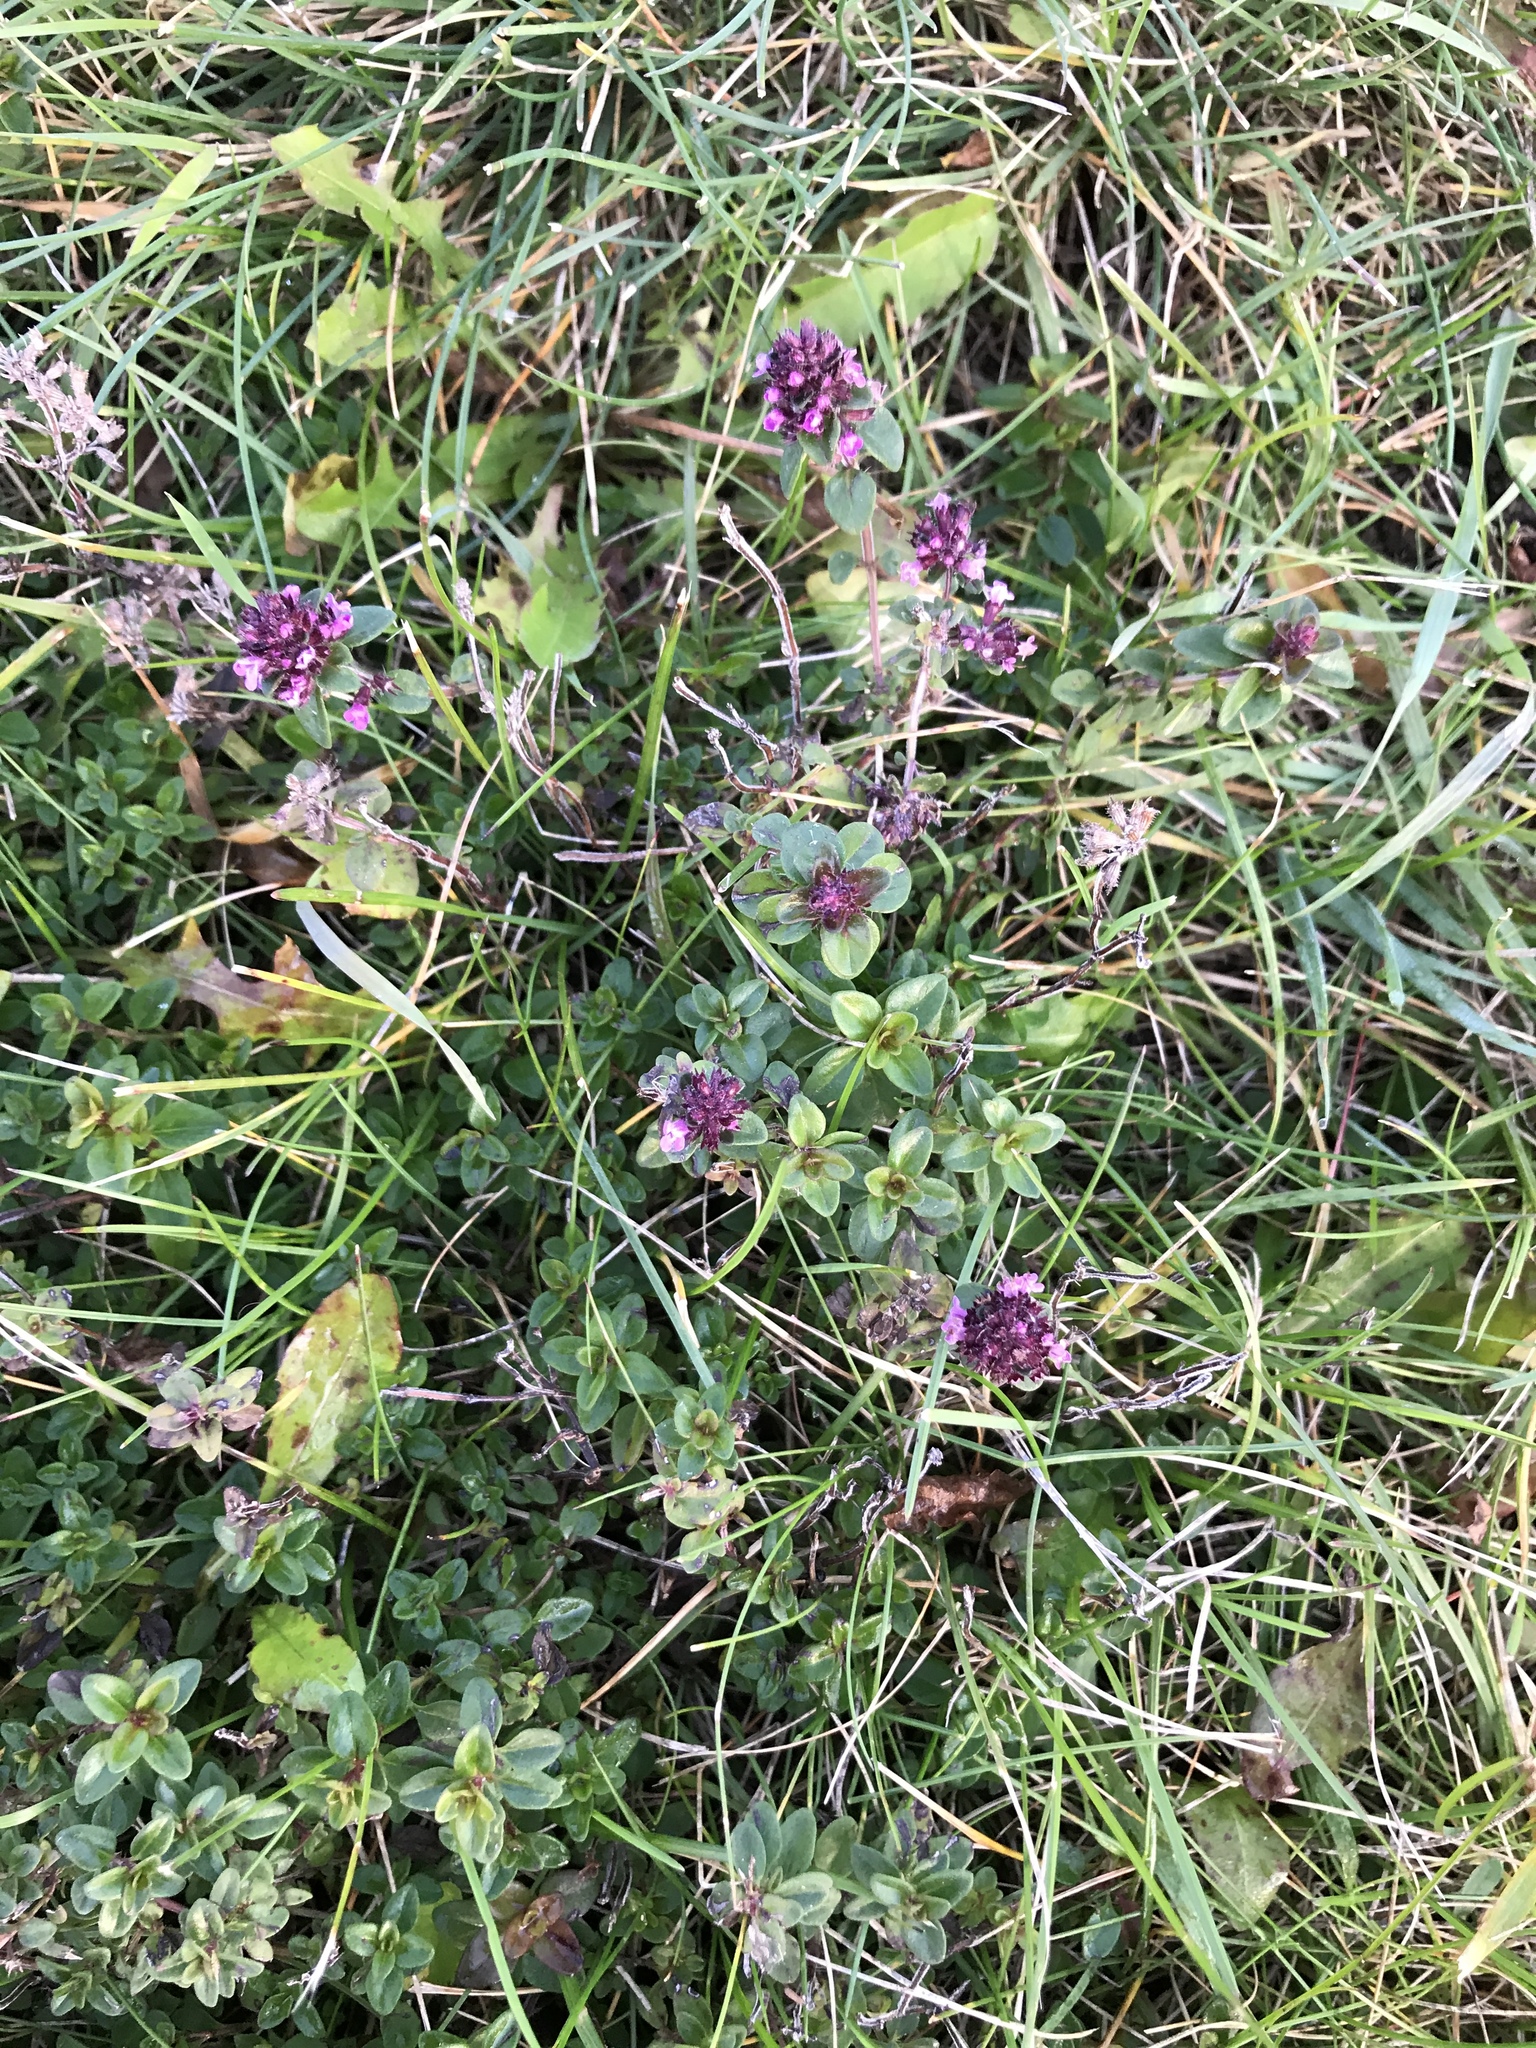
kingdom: Plantae
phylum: Tracheophyta
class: Magnoliopsida
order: Lamiales
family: Lamiaceae
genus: Thymus
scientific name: Thymus pulegioides
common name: Large thyme
